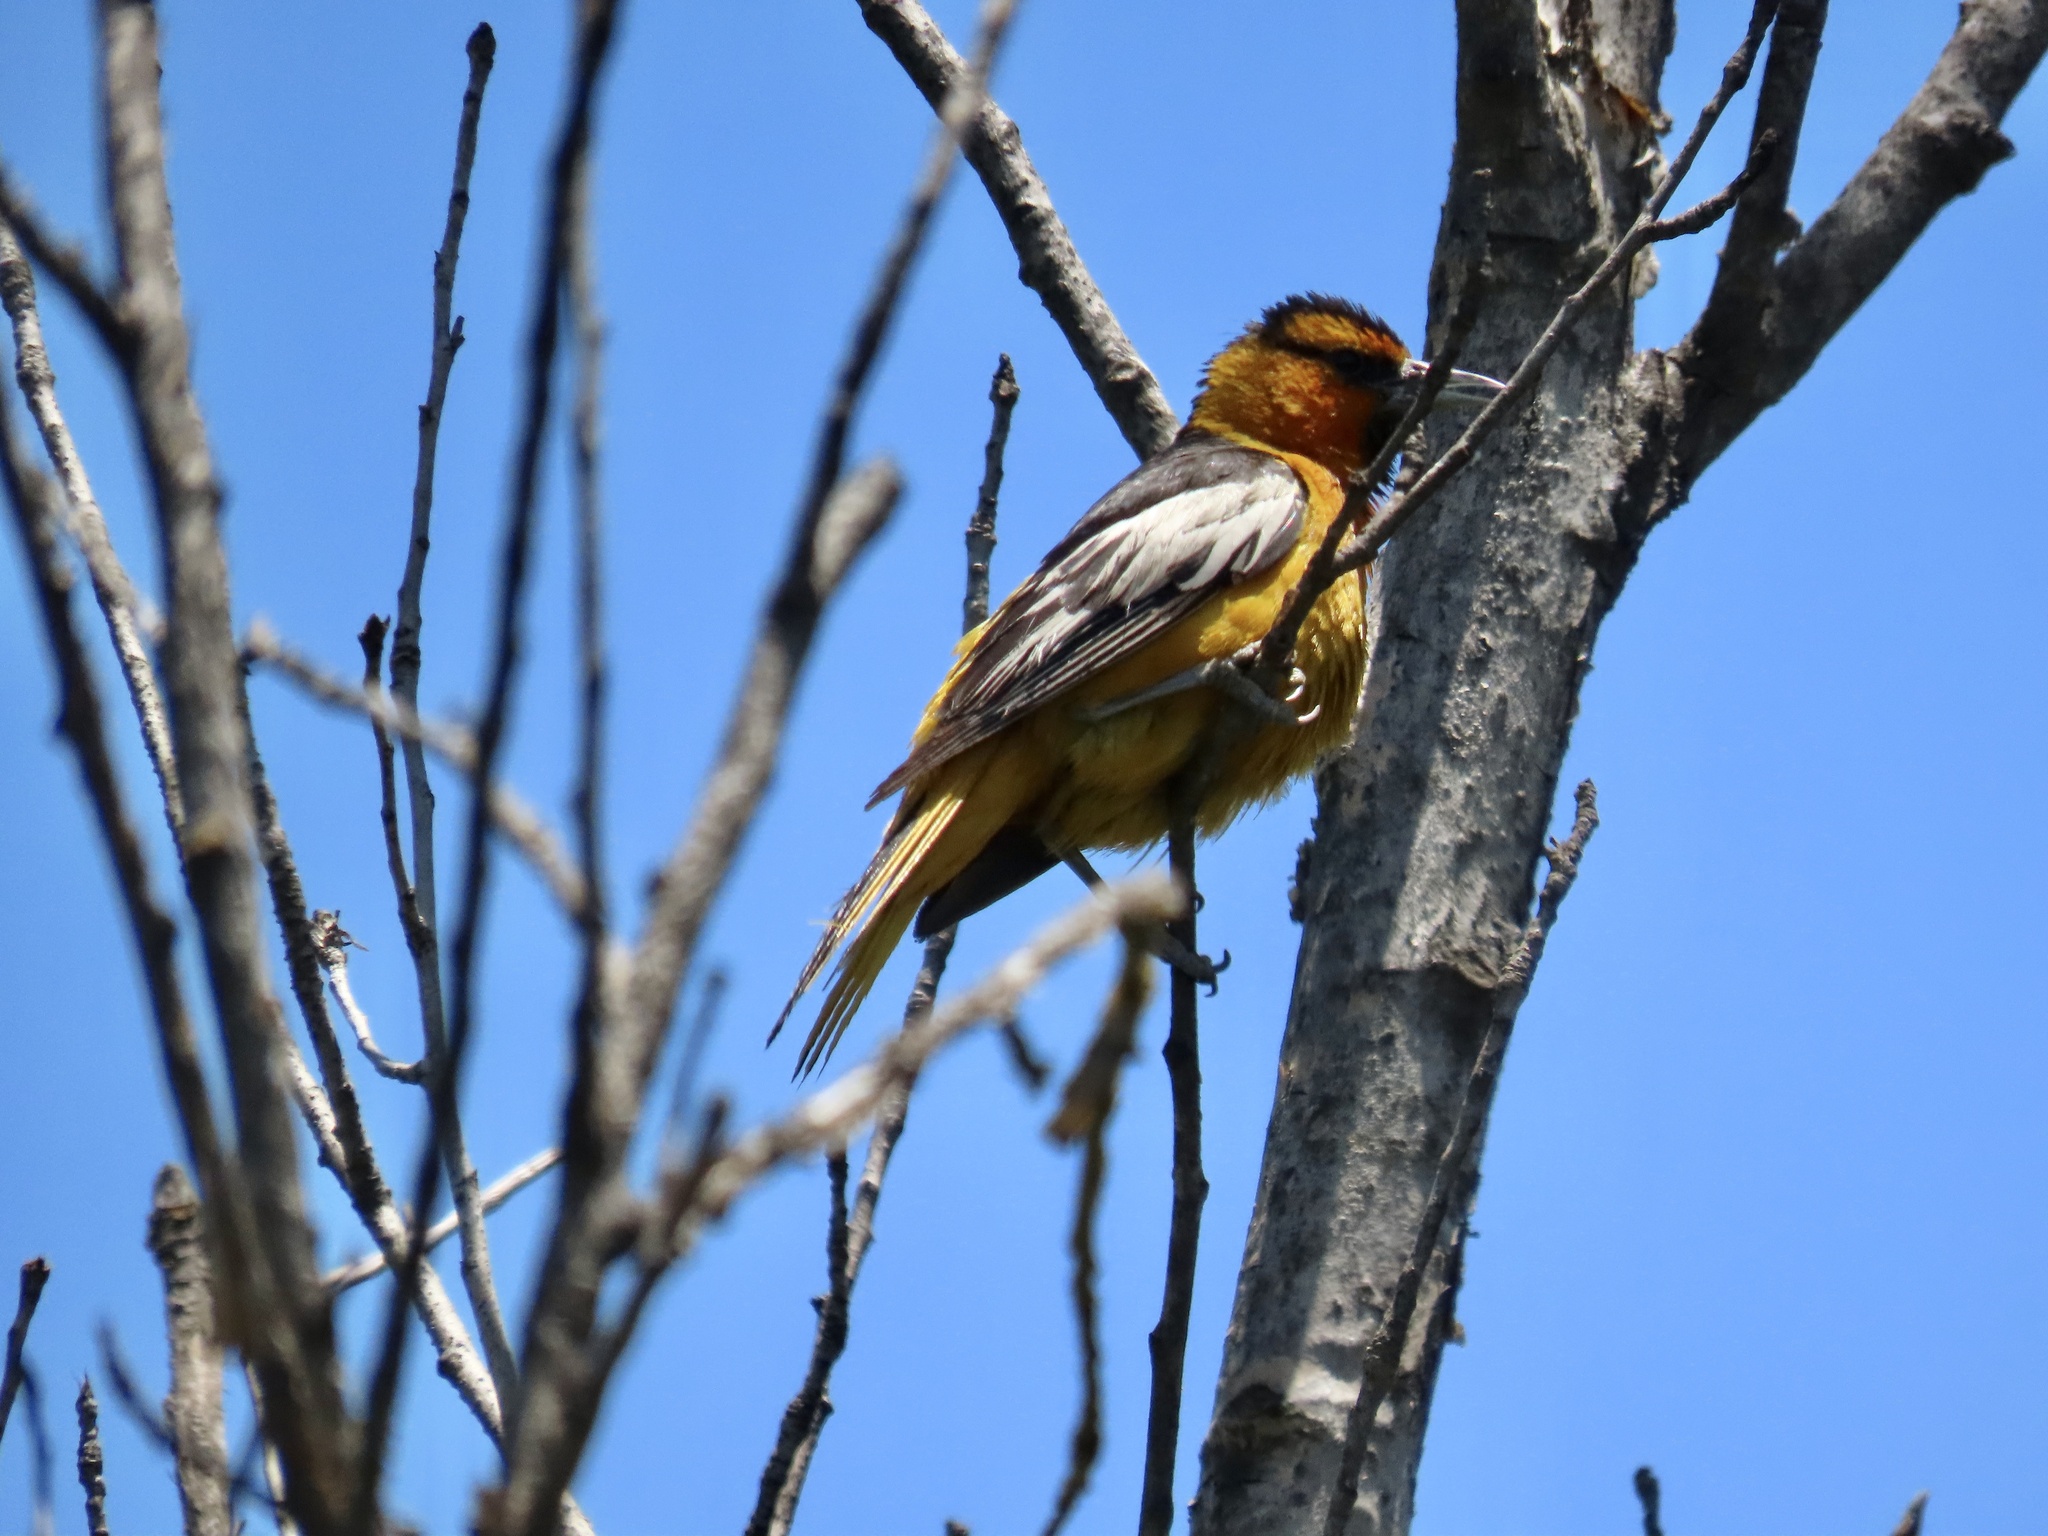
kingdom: Animalia
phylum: Chordata
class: Aves
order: Passeriformes
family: Icteridae
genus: Icterus
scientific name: Icterus bullockii
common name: Bullock's oriole
